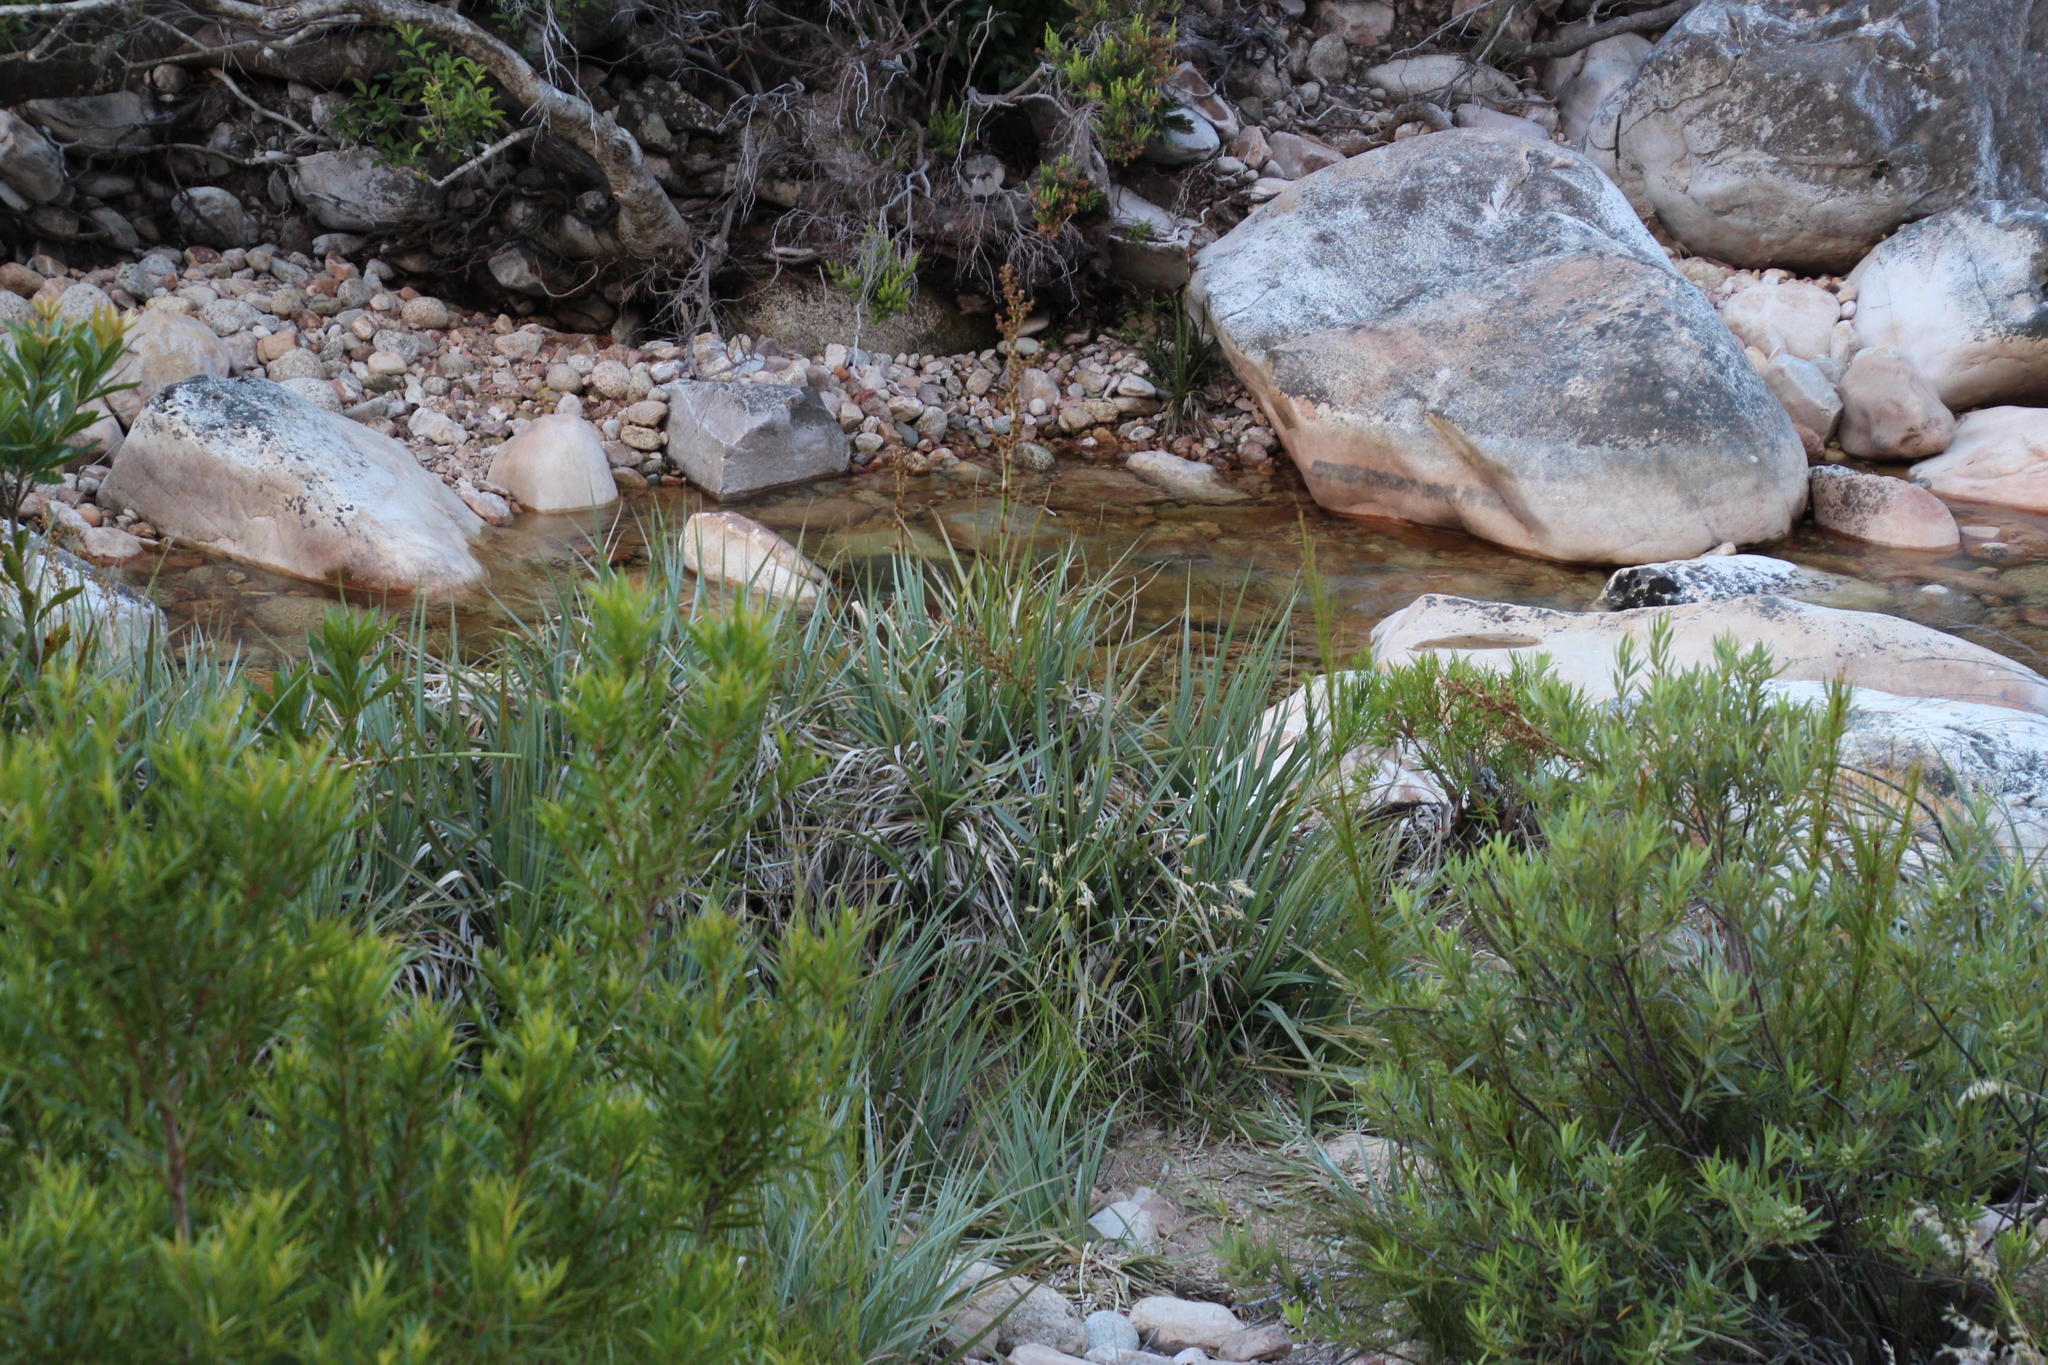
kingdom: Plantae
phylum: Tracheophyta
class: Liliopsida
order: Poales
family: Thurniaceae
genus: Prionium
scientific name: Prionium serratum
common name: Palmiet
